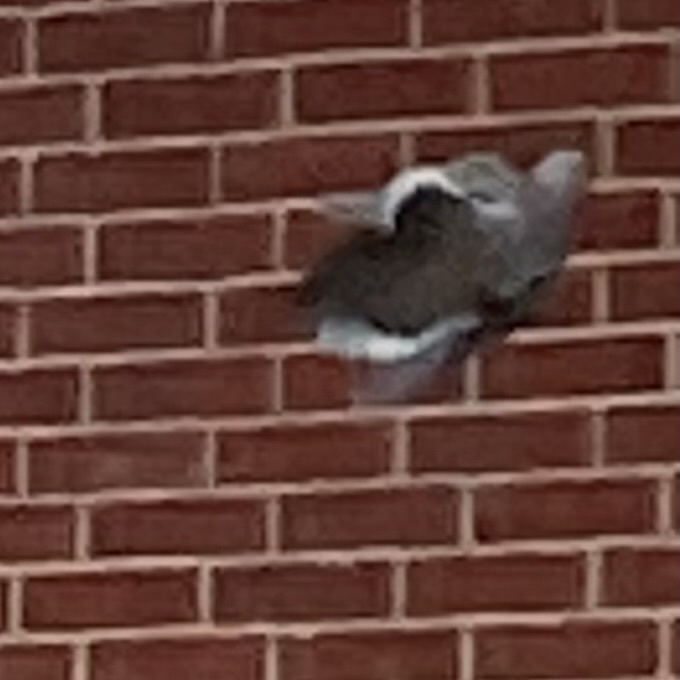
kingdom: Animalia
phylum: Chordata
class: Aves
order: Columbiformes
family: Columbidae
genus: Zenaida
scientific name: Zenaida macroura
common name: Mourning dove
